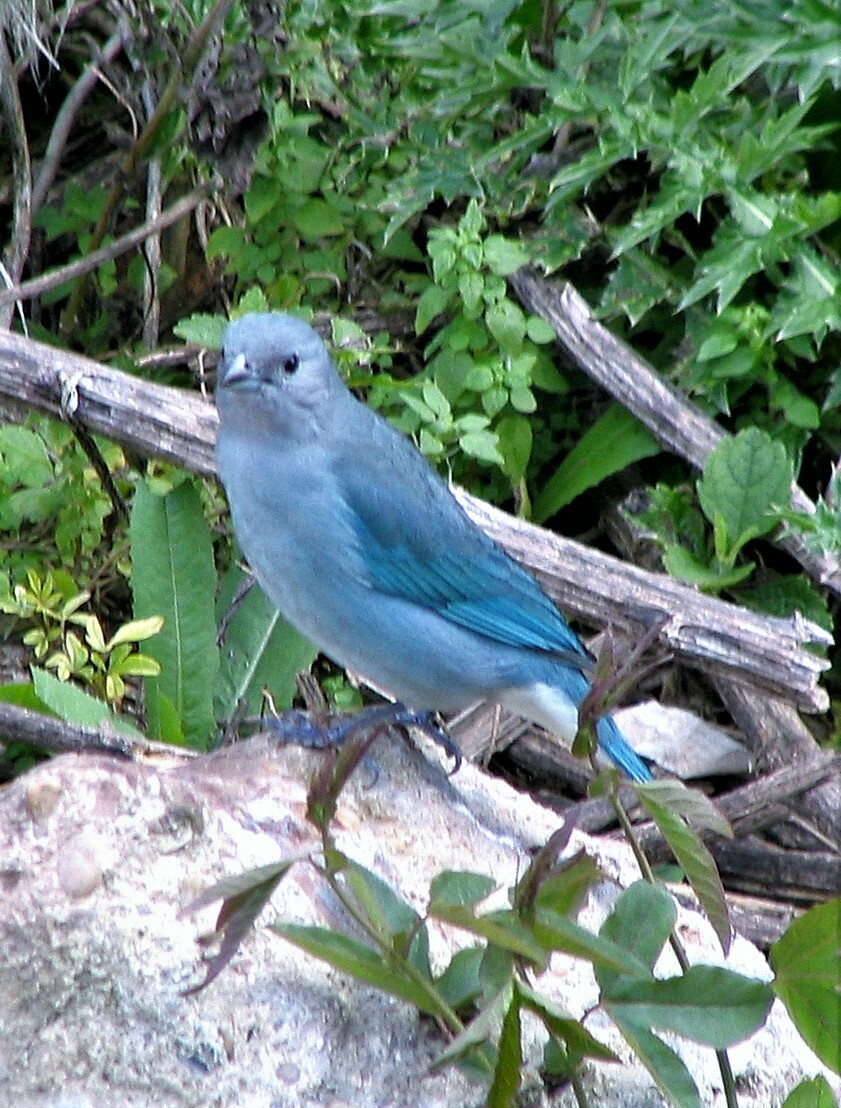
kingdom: Animalia
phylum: Chordata
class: Aves
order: Passeriformes
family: Thraupidae
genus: Thraupis
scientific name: Thraupis sayaca
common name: Sayaca tanager
